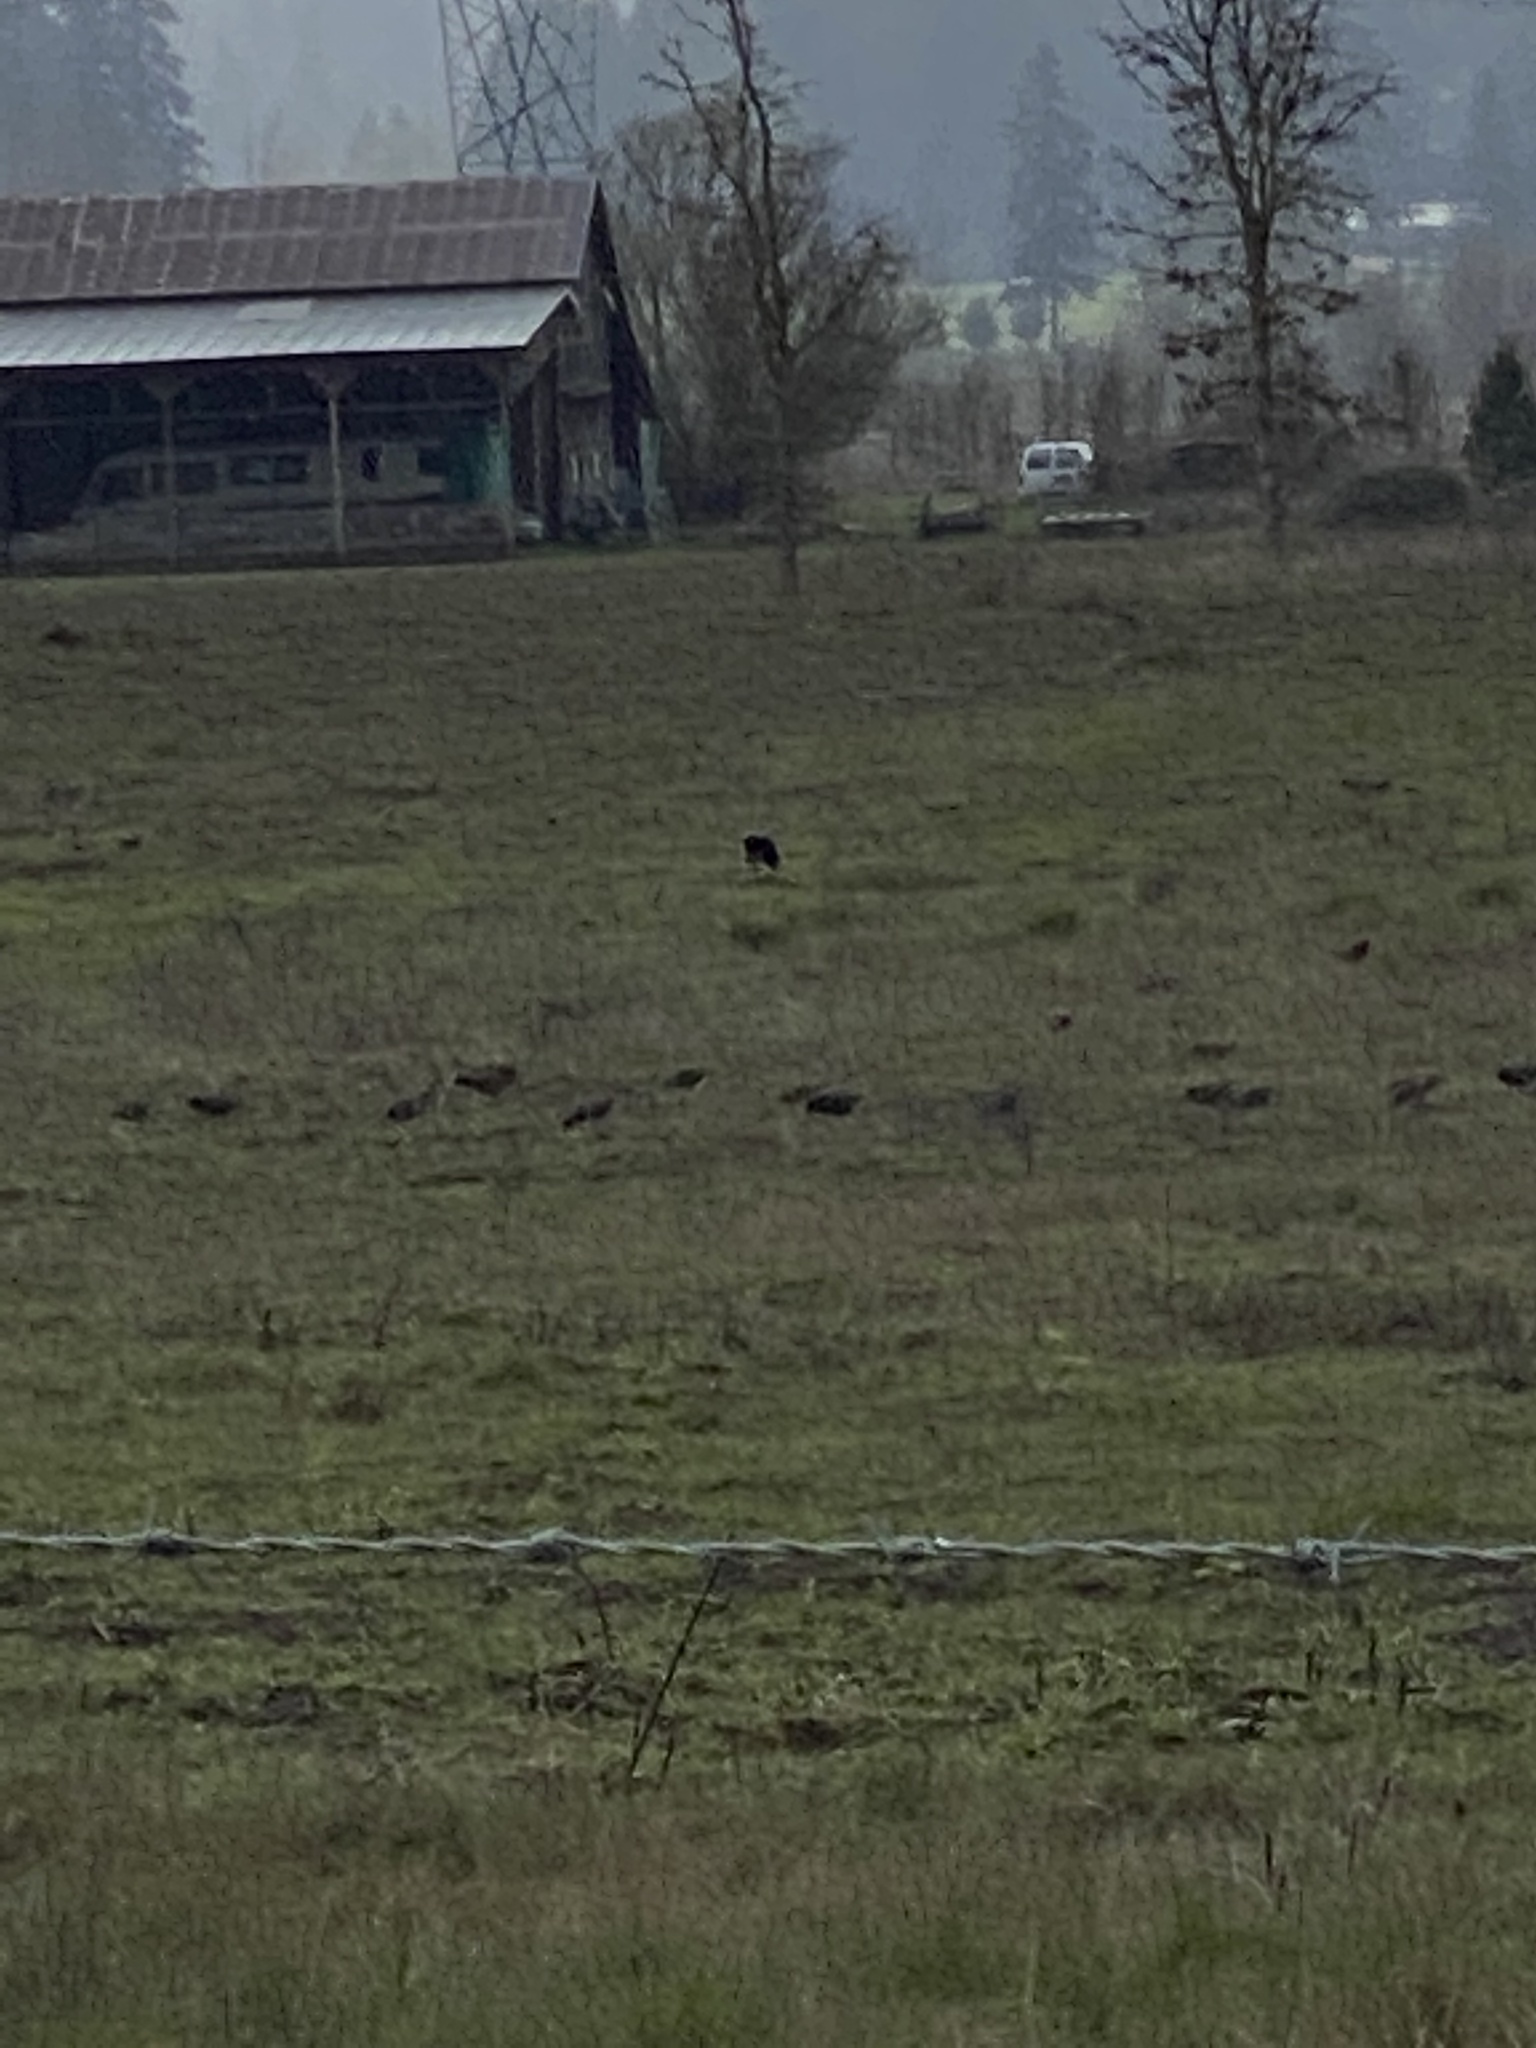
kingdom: Animalia
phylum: Chordata
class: Aves
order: Passeriformes
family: Corvidae
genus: Corvus
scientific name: Corvus brachyrhynchos
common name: American crow
